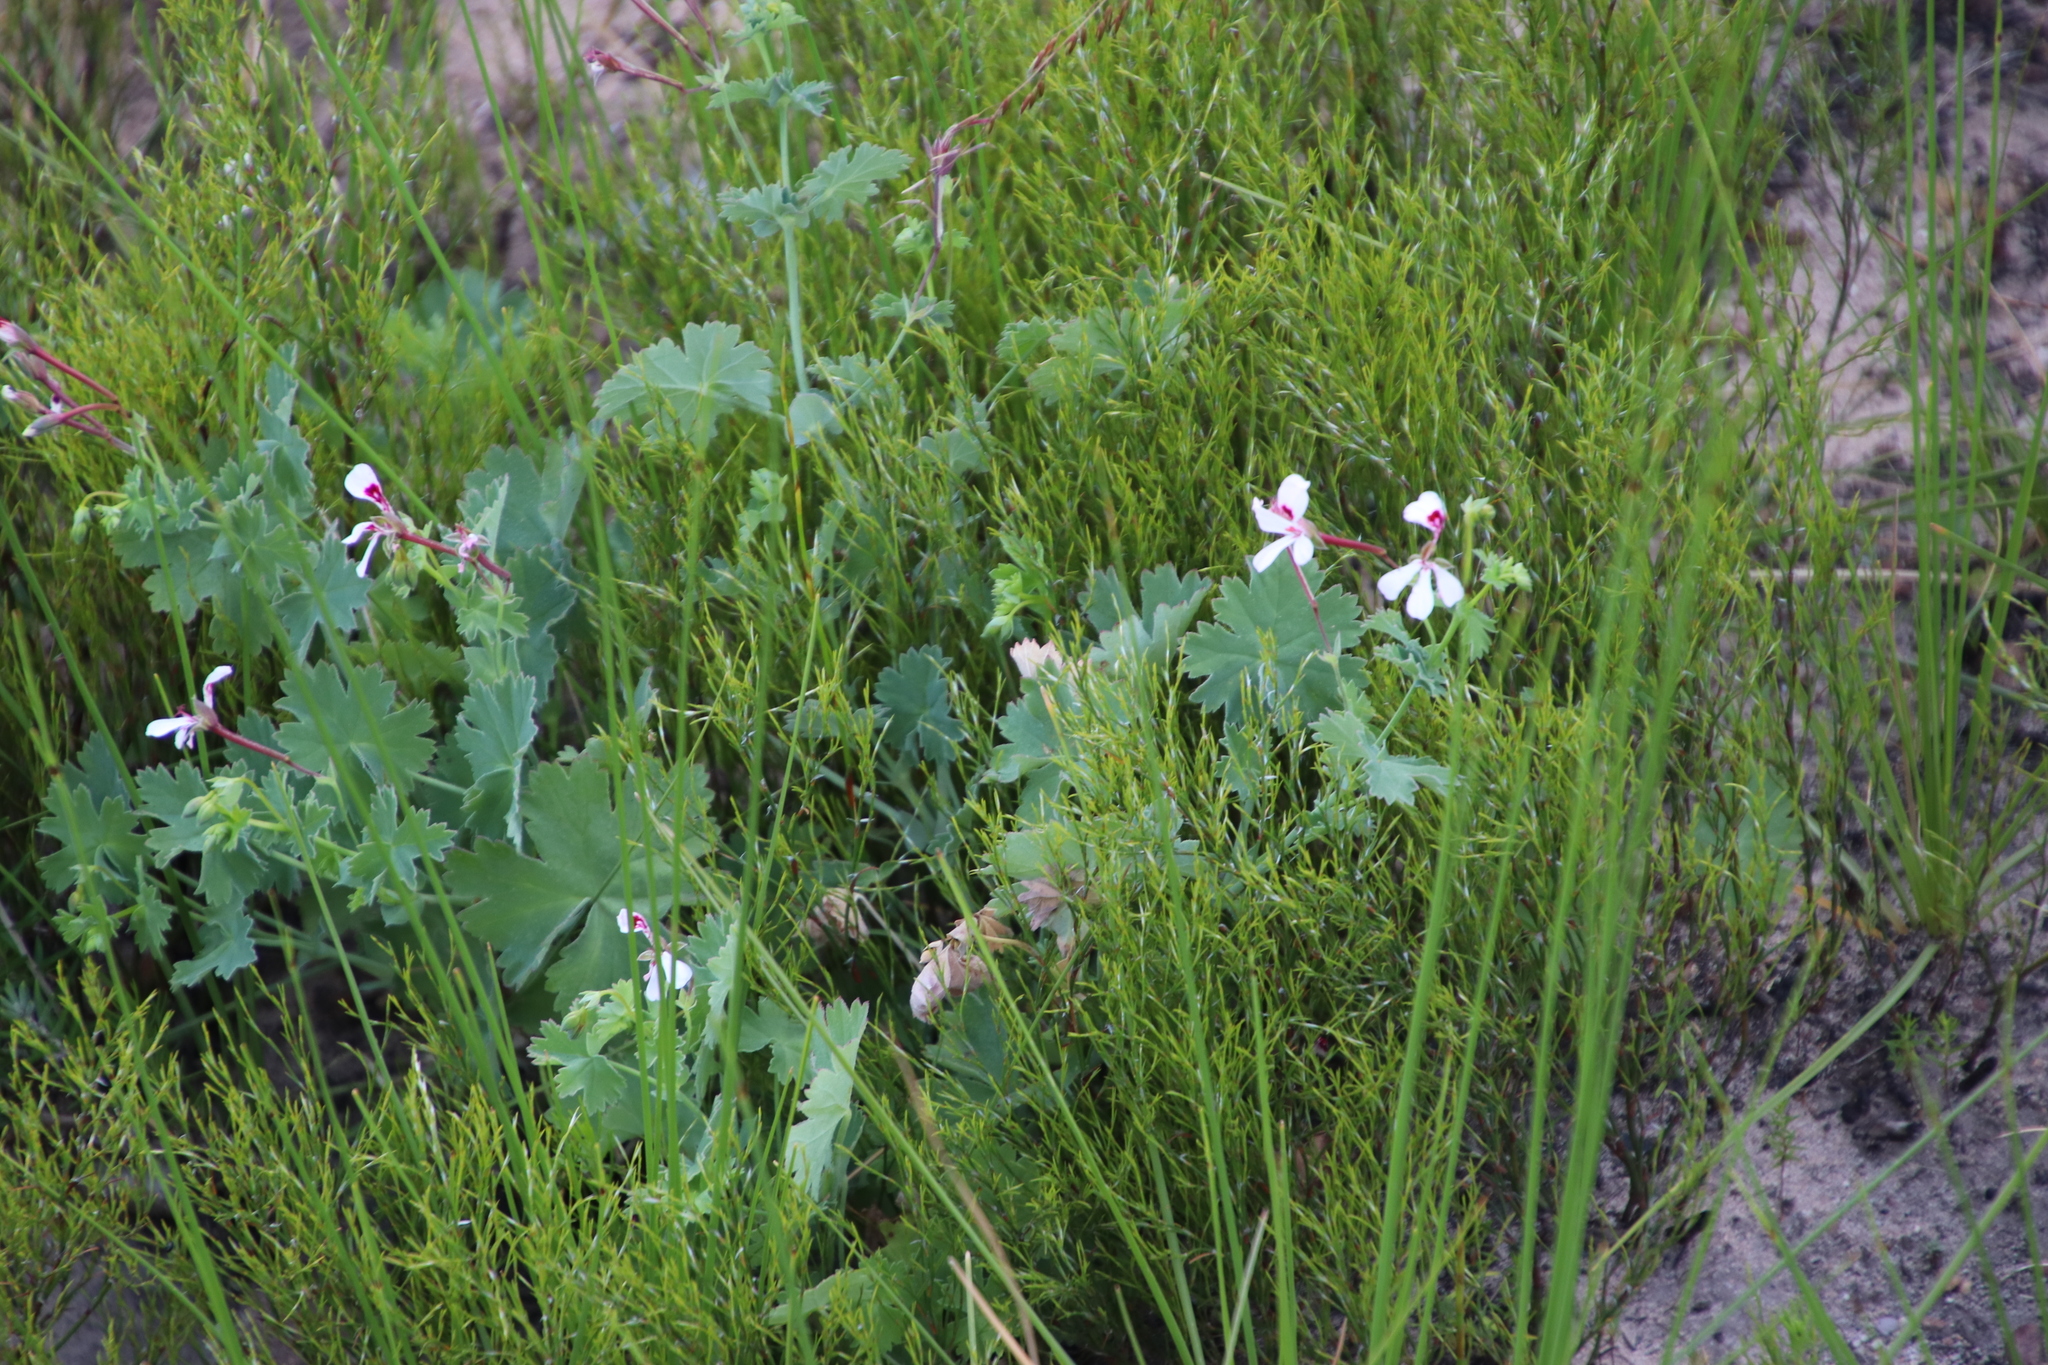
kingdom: Plantae
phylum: Tracheophyta
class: Magnoliopsida
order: Geraniales
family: Geraniaceae
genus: Pelargonium
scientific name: Pelargonium patulum
